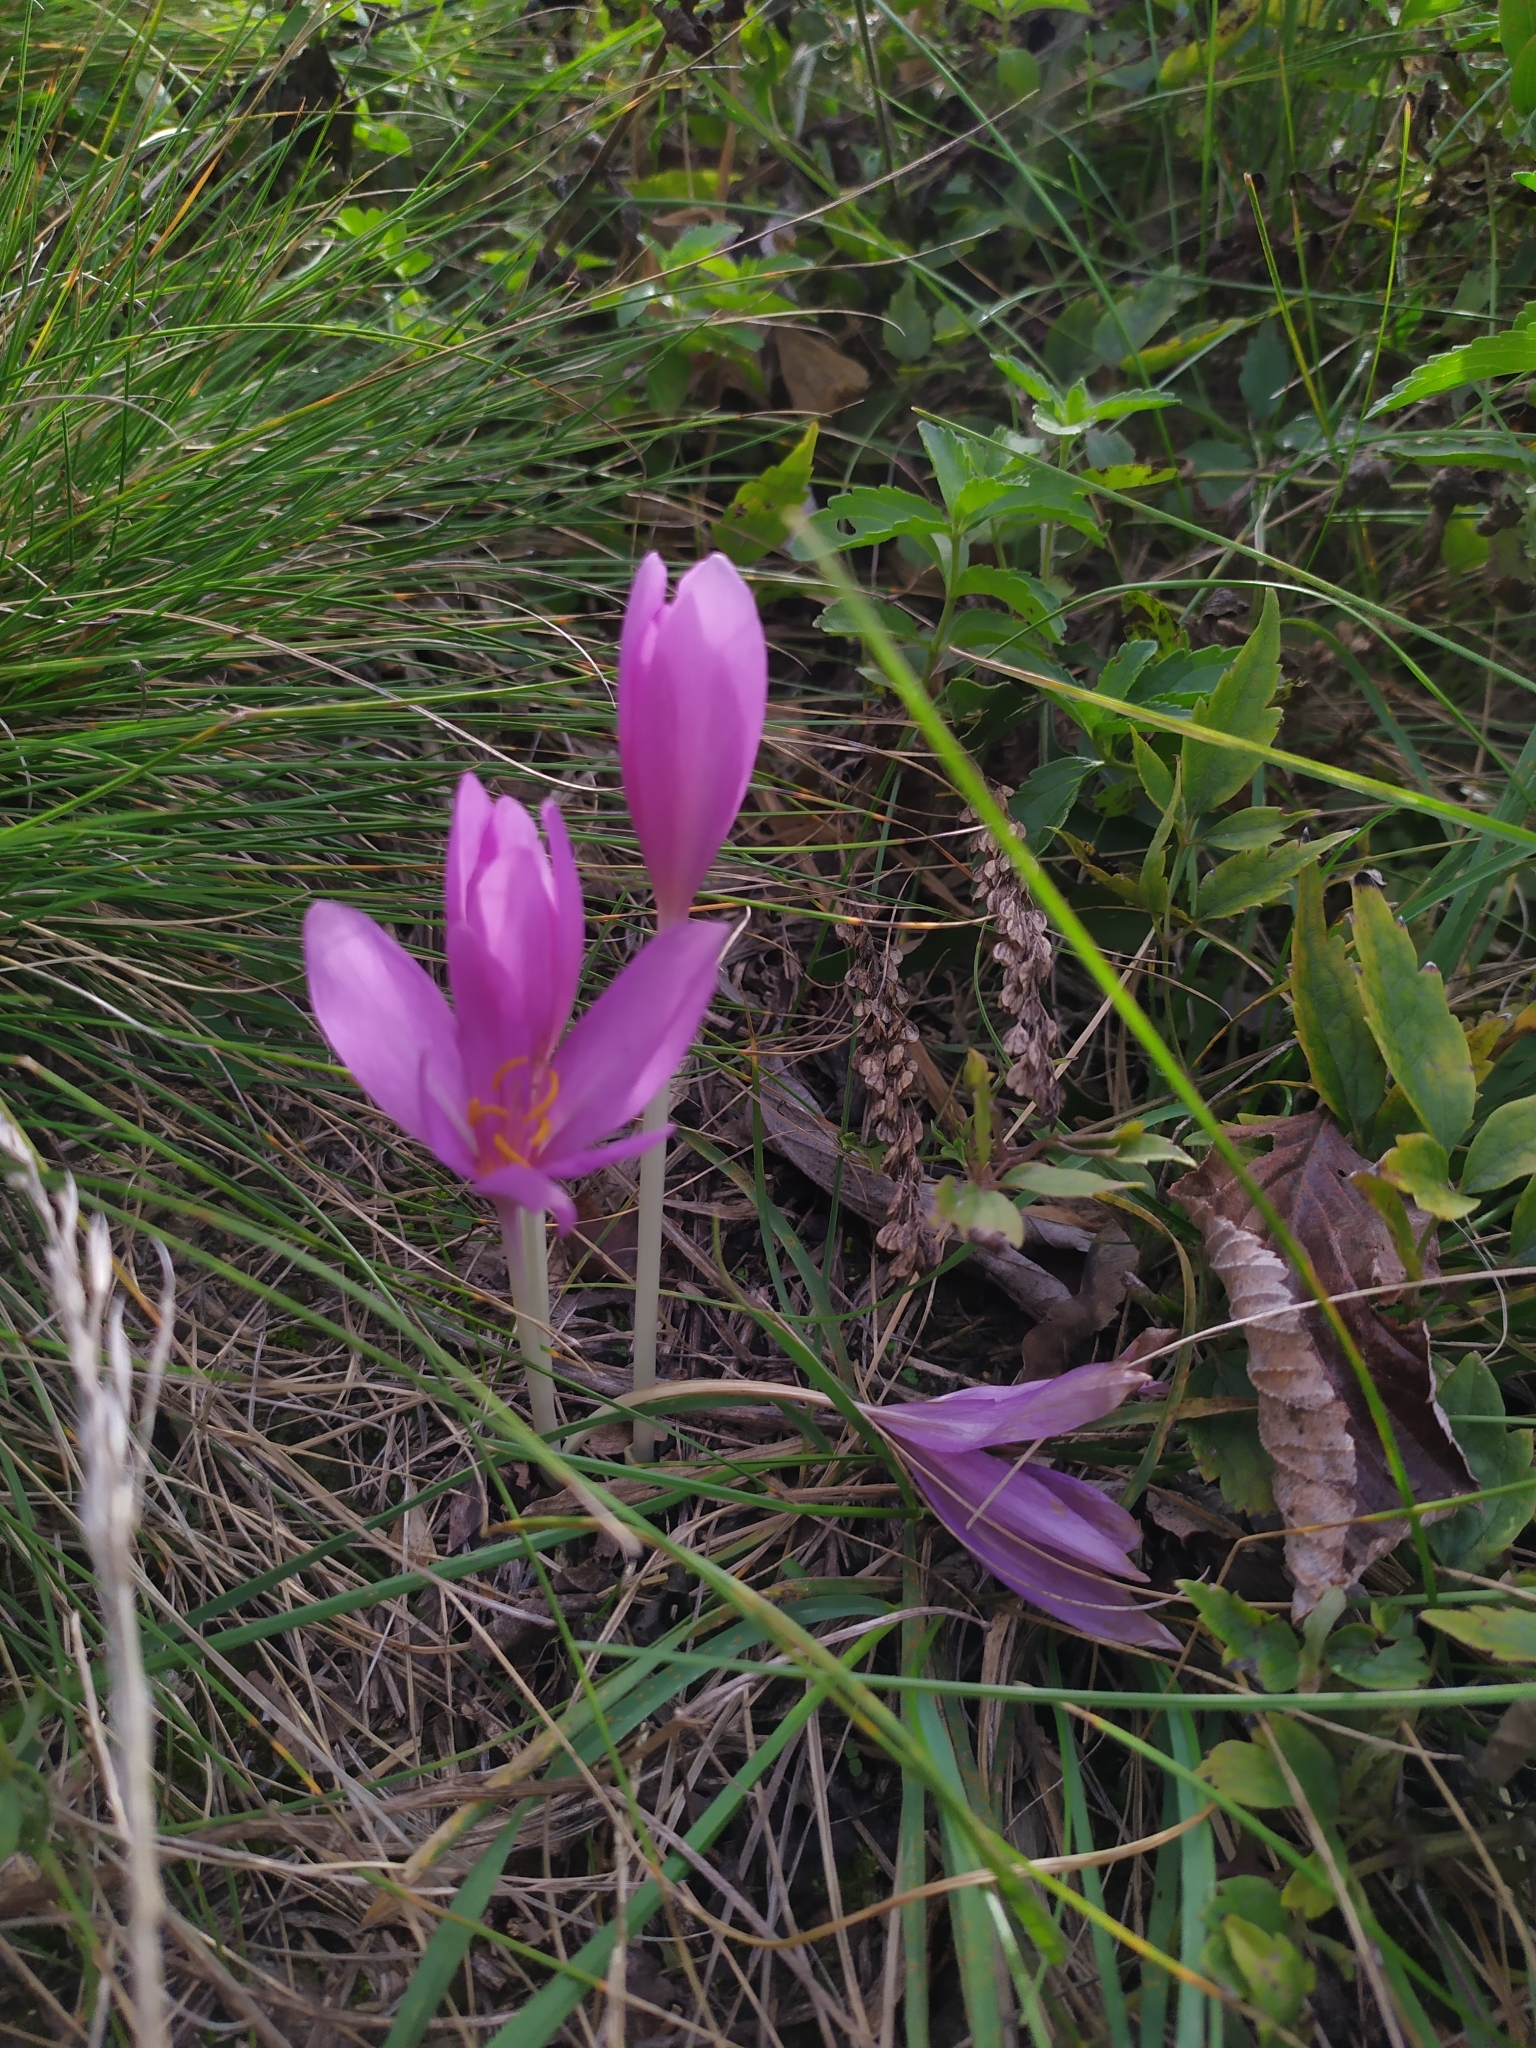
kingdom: Plantae
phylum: Tracheophyta
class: Liliopsida
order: Liliales
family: Colchicaceae
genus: Colchicum
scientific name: Colchicum autumnale
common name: Autumn crocus
